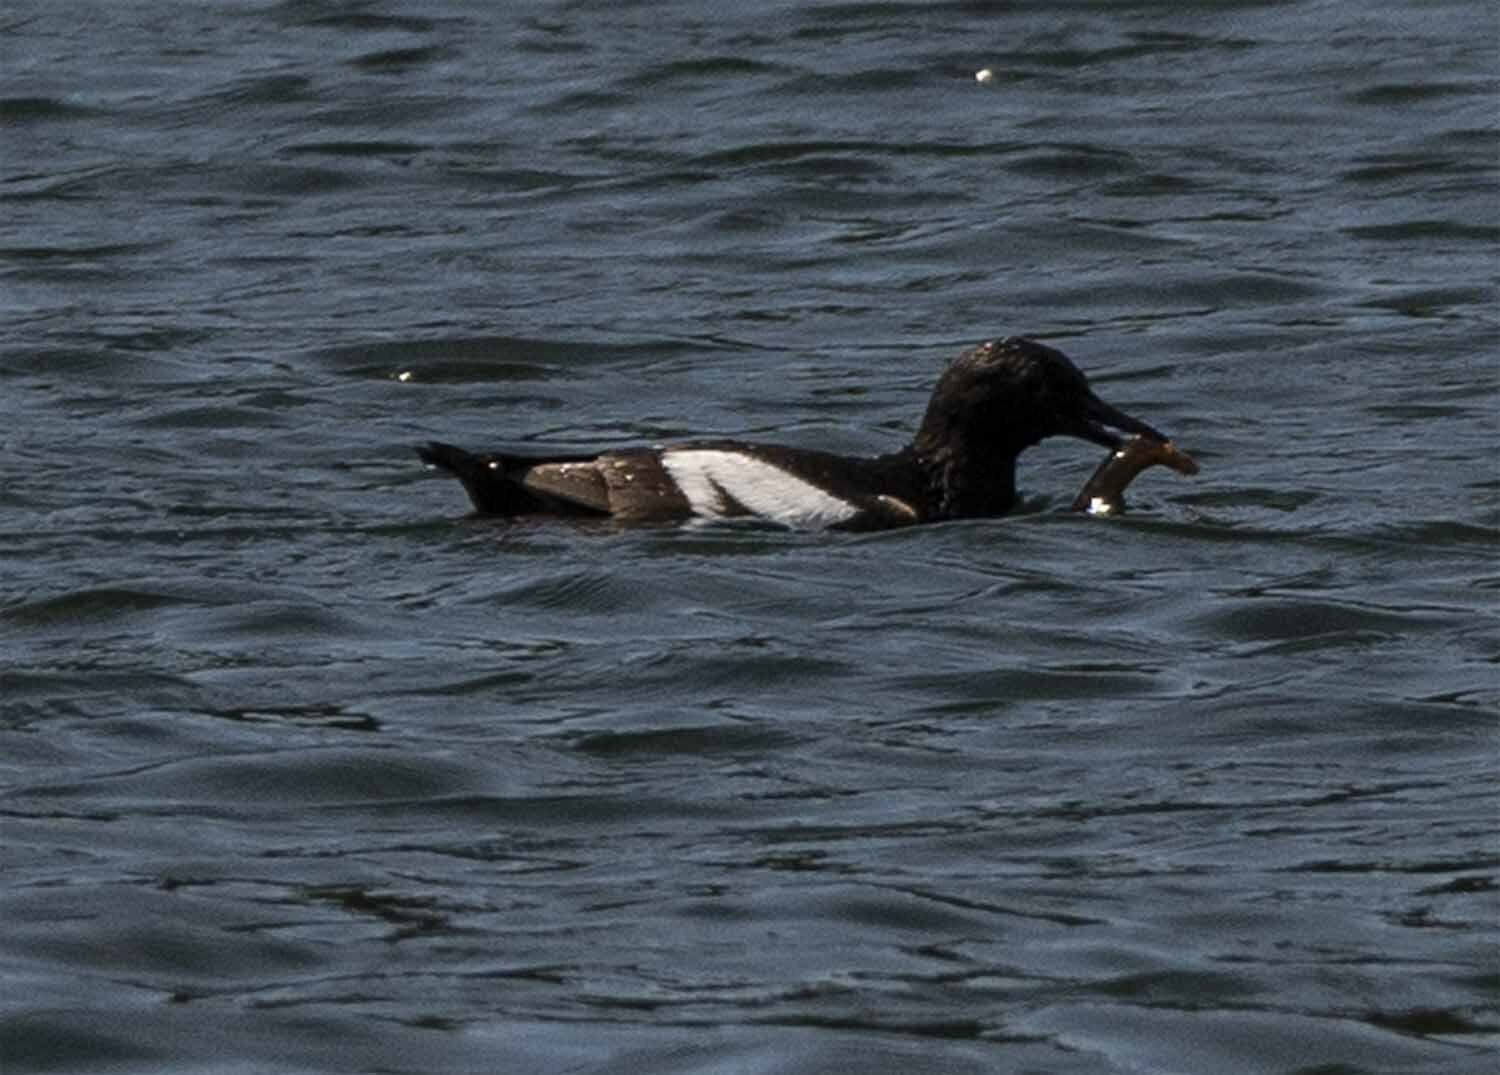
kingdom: Animalia
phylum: Chordata
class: Aves
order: Charadriiformes
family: Alcidae
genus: Cepphus
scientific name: Cepphus columba
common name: Pigeon guillemot
